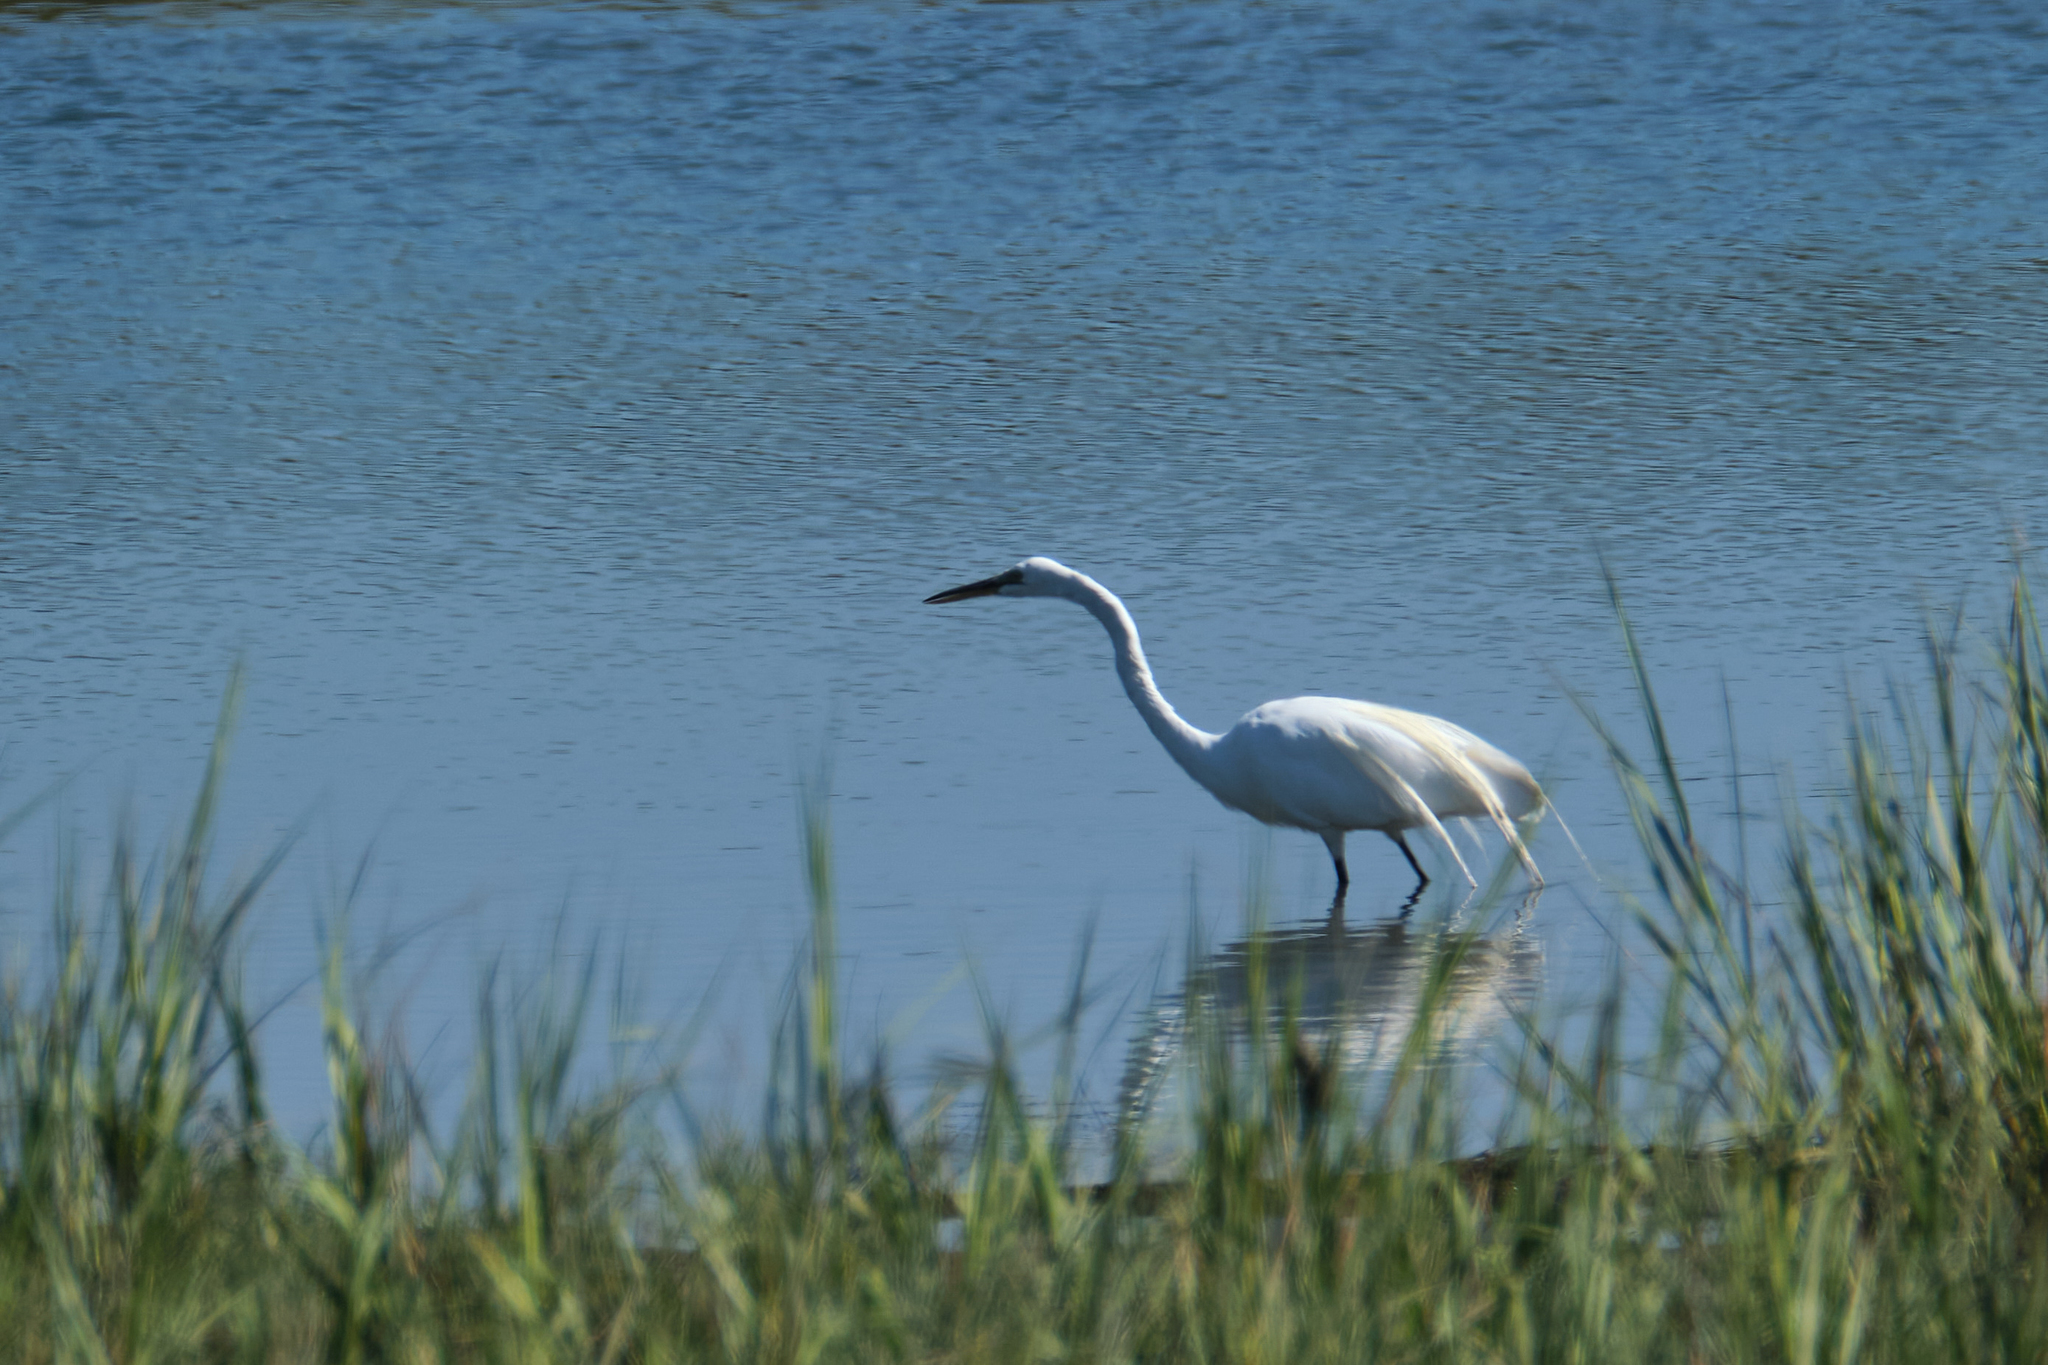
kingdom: Animalia
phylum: Chordata
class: Aves
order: Pelecaniformes
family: Ardeidae
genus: Ardea
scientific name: Ardea alba
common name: Great egret
